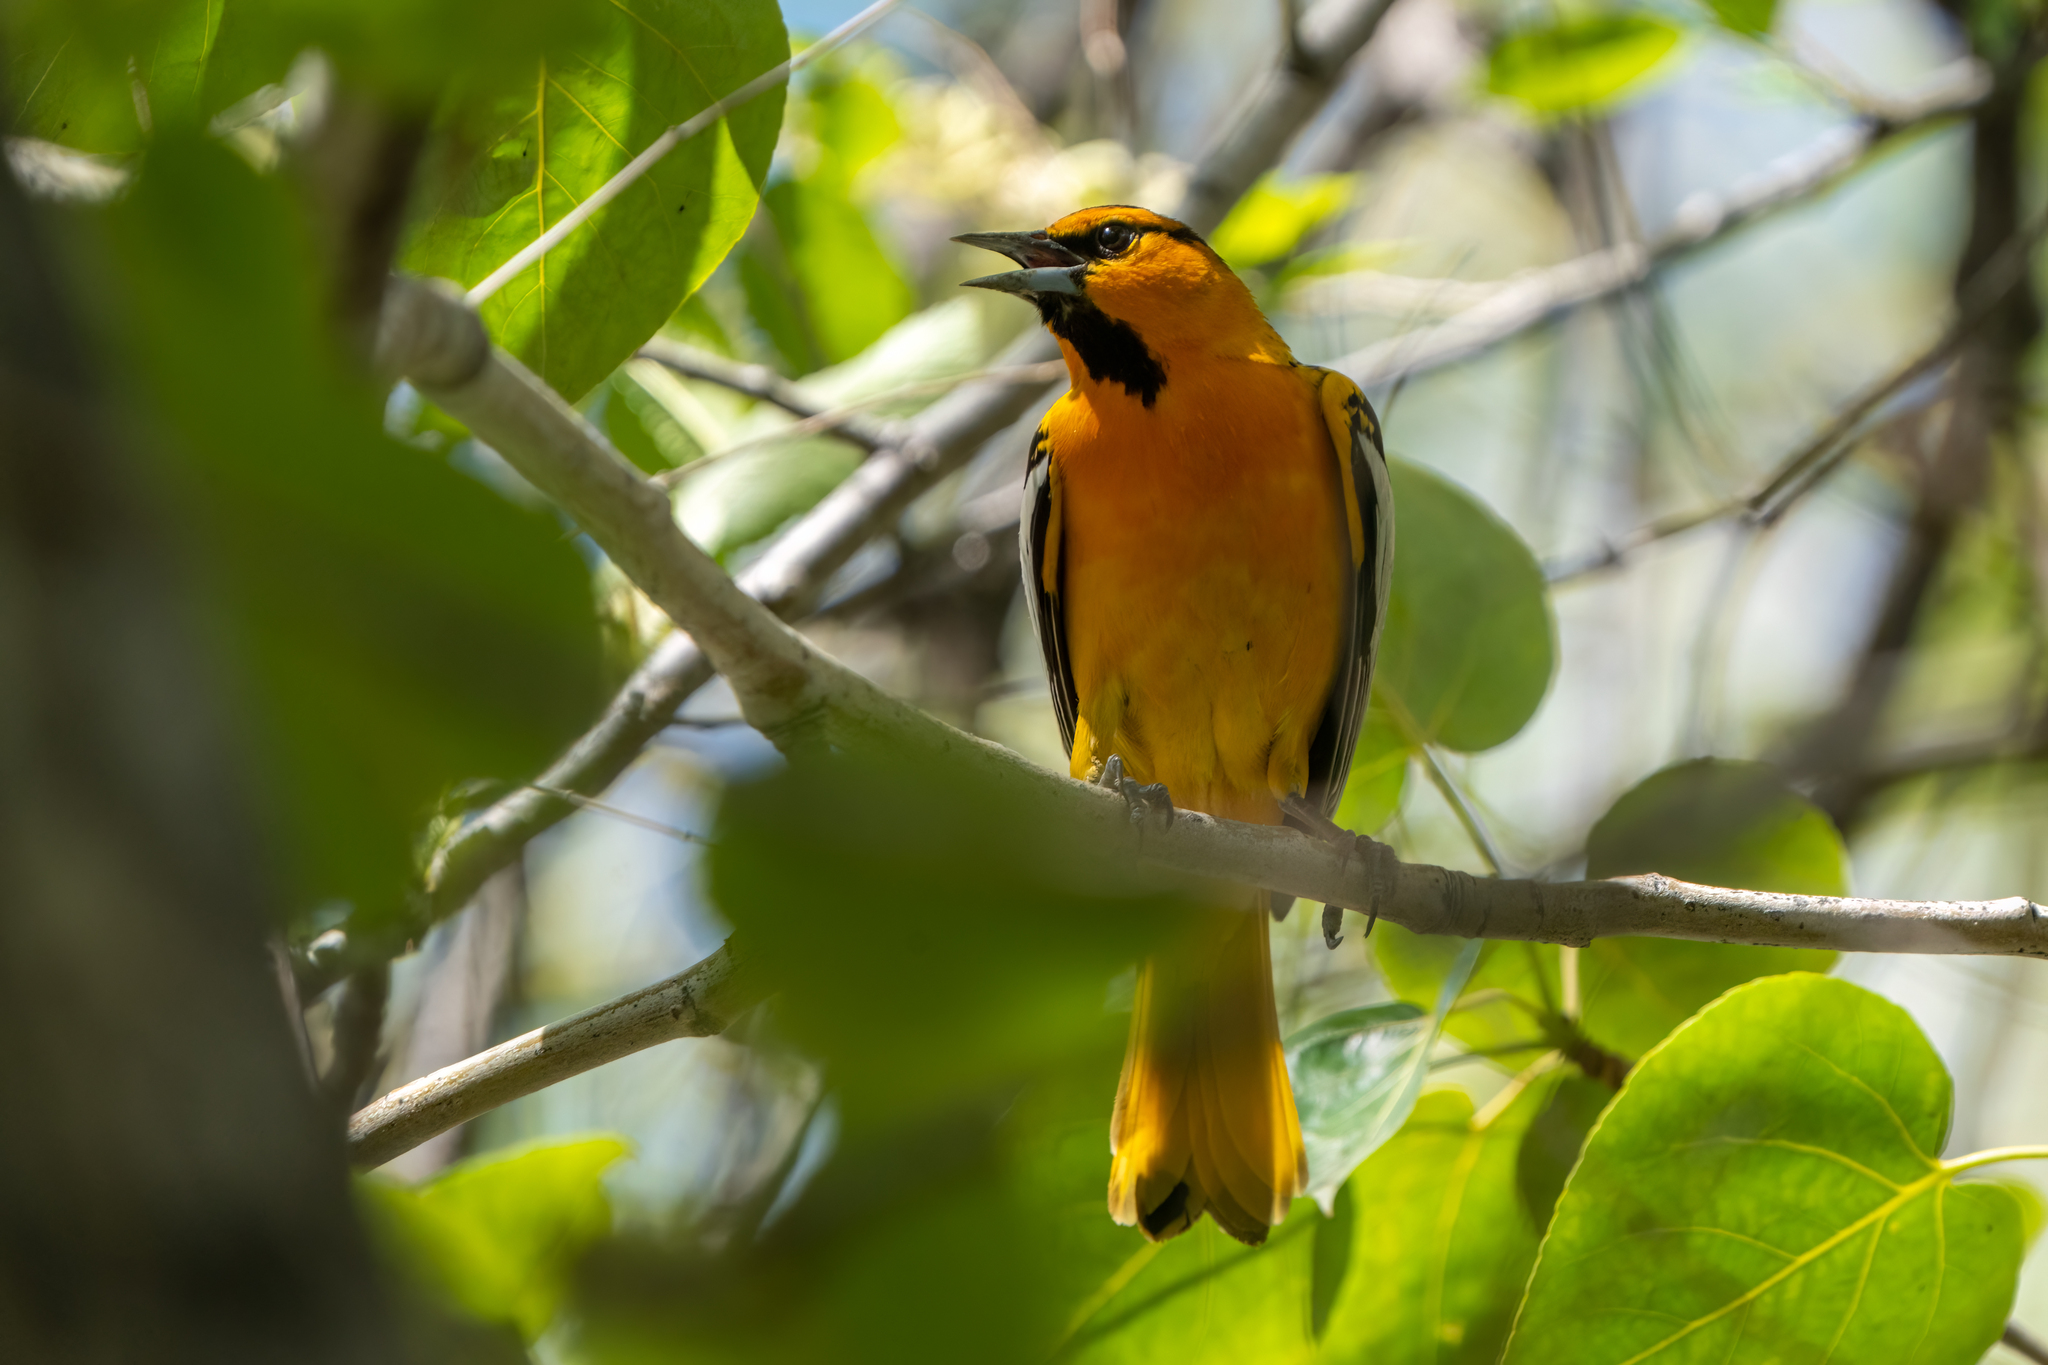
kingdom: Animalia
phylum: Chordata
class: Aves
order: Passeriformes
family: Icteridae
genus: Icterus
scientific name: Icterus bullockii
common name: Bullock's oriole
